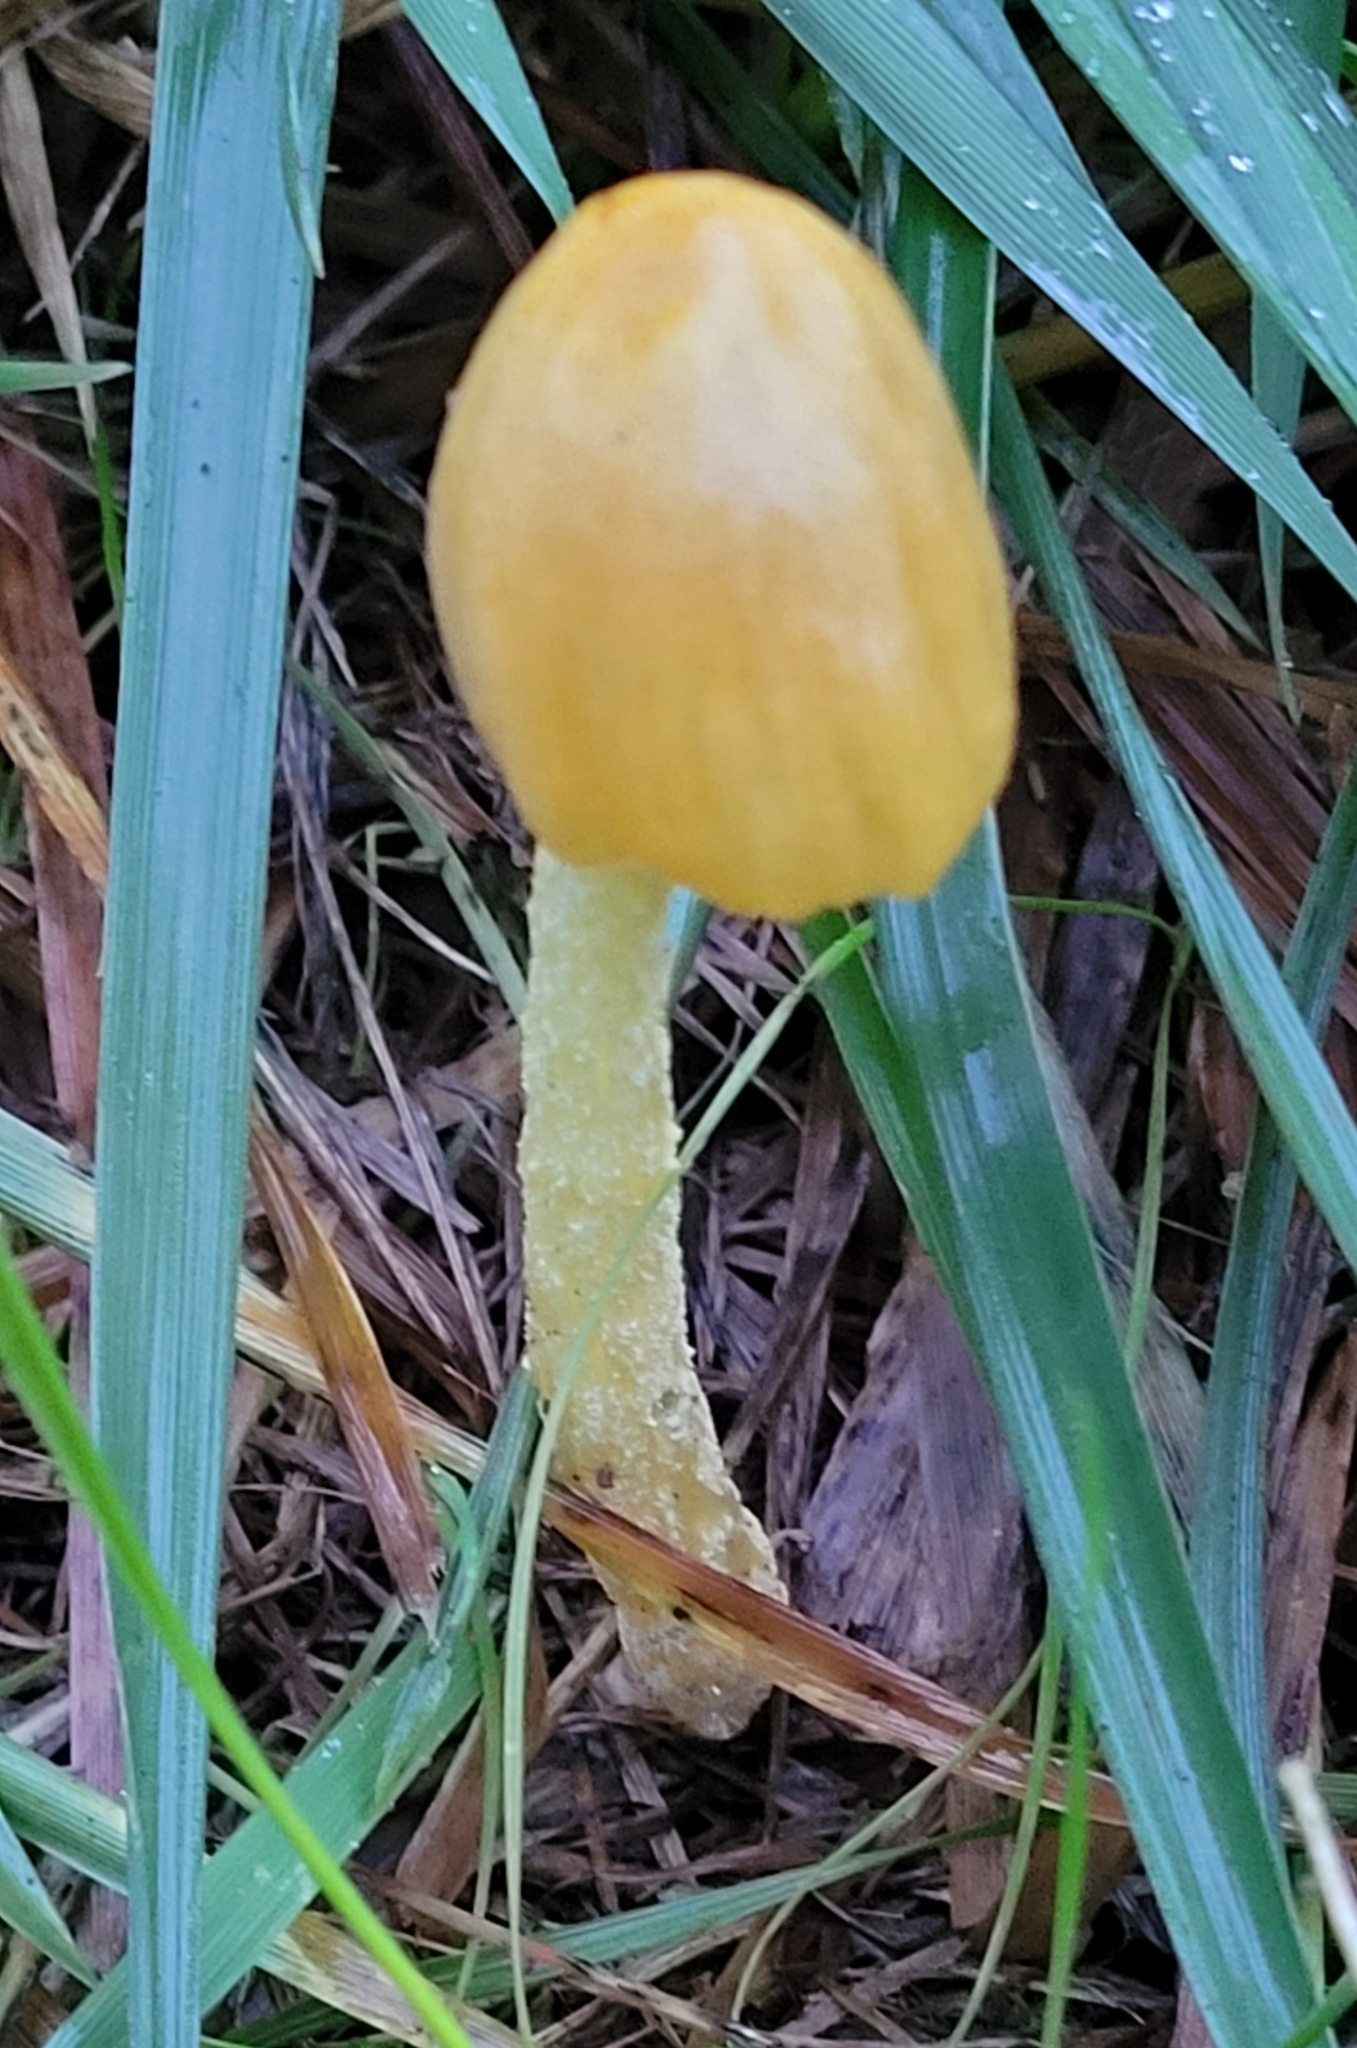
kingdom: Fungi
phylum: Basidiomycota
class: Agaricomycetes
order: Agaricales
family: Bolbitiaceae
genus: Bolbitius
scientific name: Bolbitius titubans
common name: Yellow fieldcap
